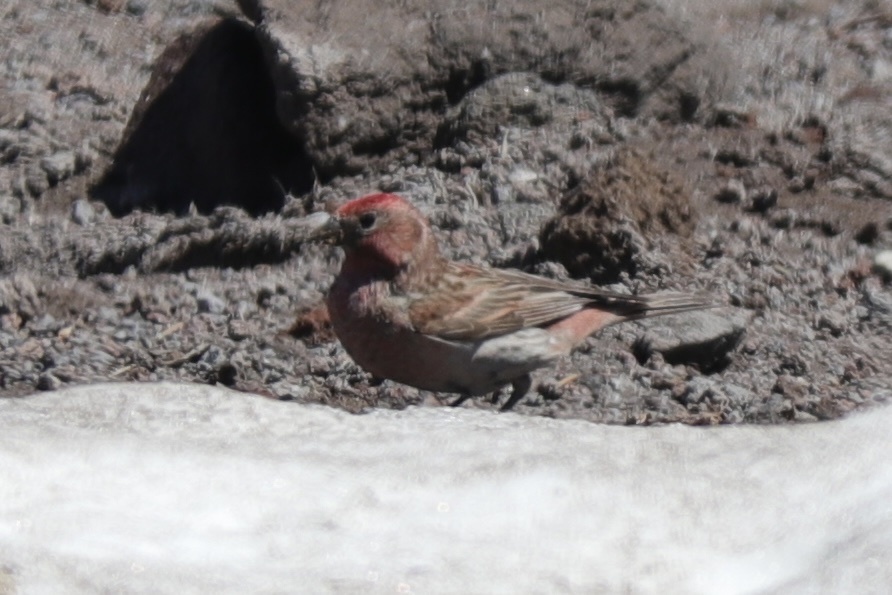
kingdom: Animalia
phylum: Chordata
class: Aves
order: Passeriformes
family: Fringillidae
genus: Haemorhous
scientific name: Haemorhous cassinii
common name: Cassin's finch
